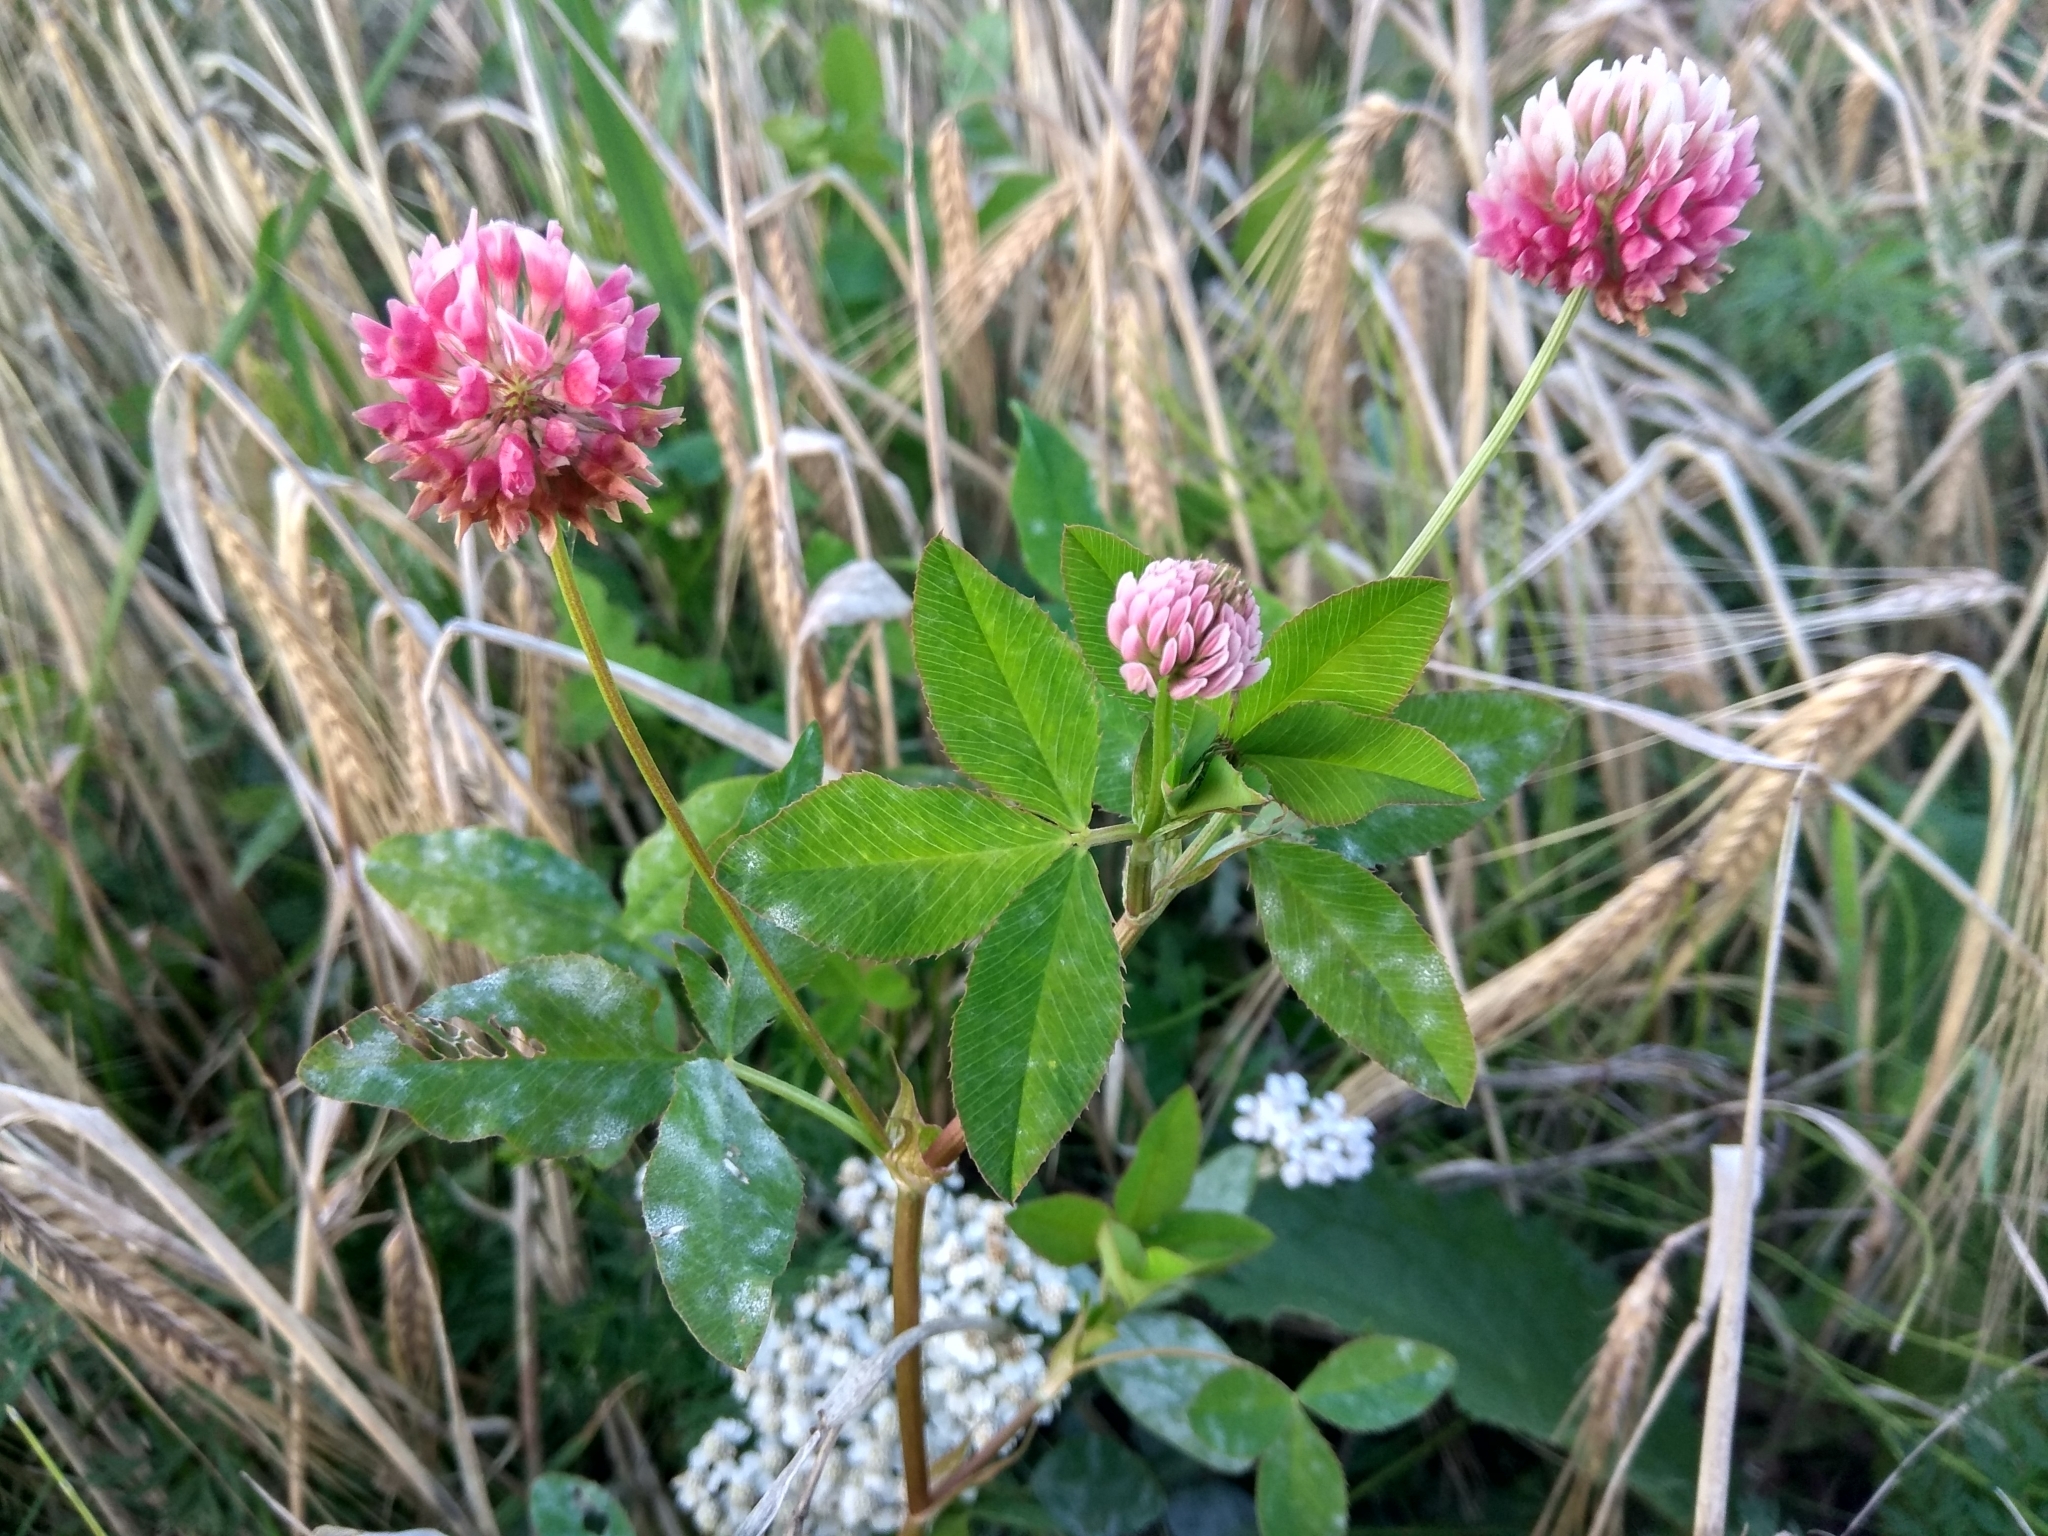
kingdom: Plantae
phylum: Tracheophyta
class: Magnoliopsida
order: Fabales
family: Fabaceae
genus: Trifolium
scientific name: Trifolium hybridum
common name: Alsike clover
